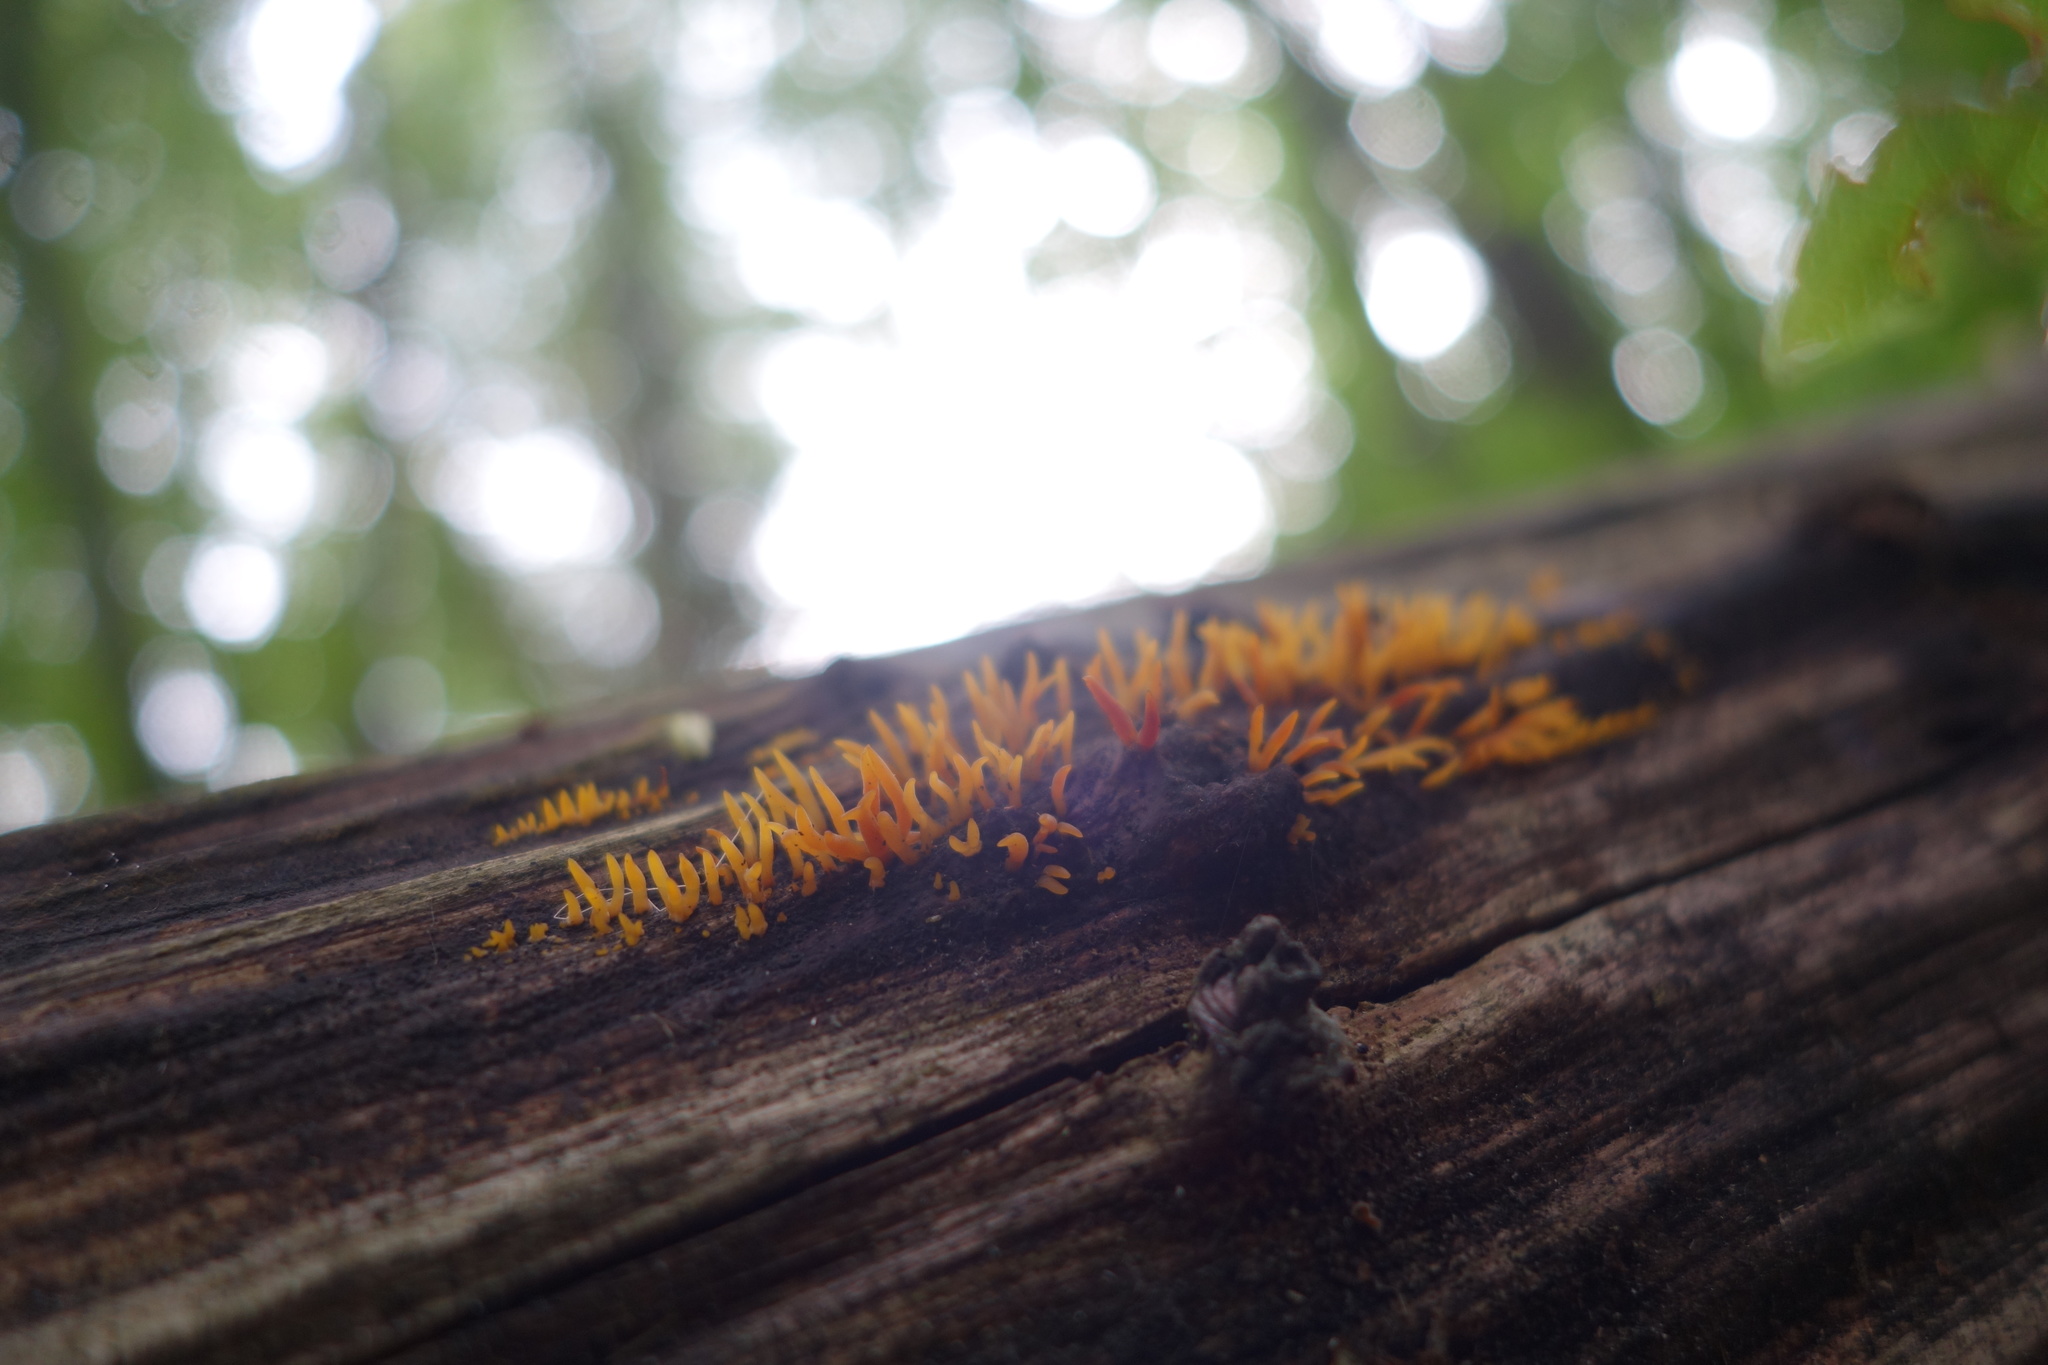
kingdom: Fungi
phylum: Basidiomycota
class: Dacrymycetes
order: Dacrymycetales
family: Dacrymycetaceae
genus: Calocera
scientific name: Calocera cornea
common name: Small stagshorn
